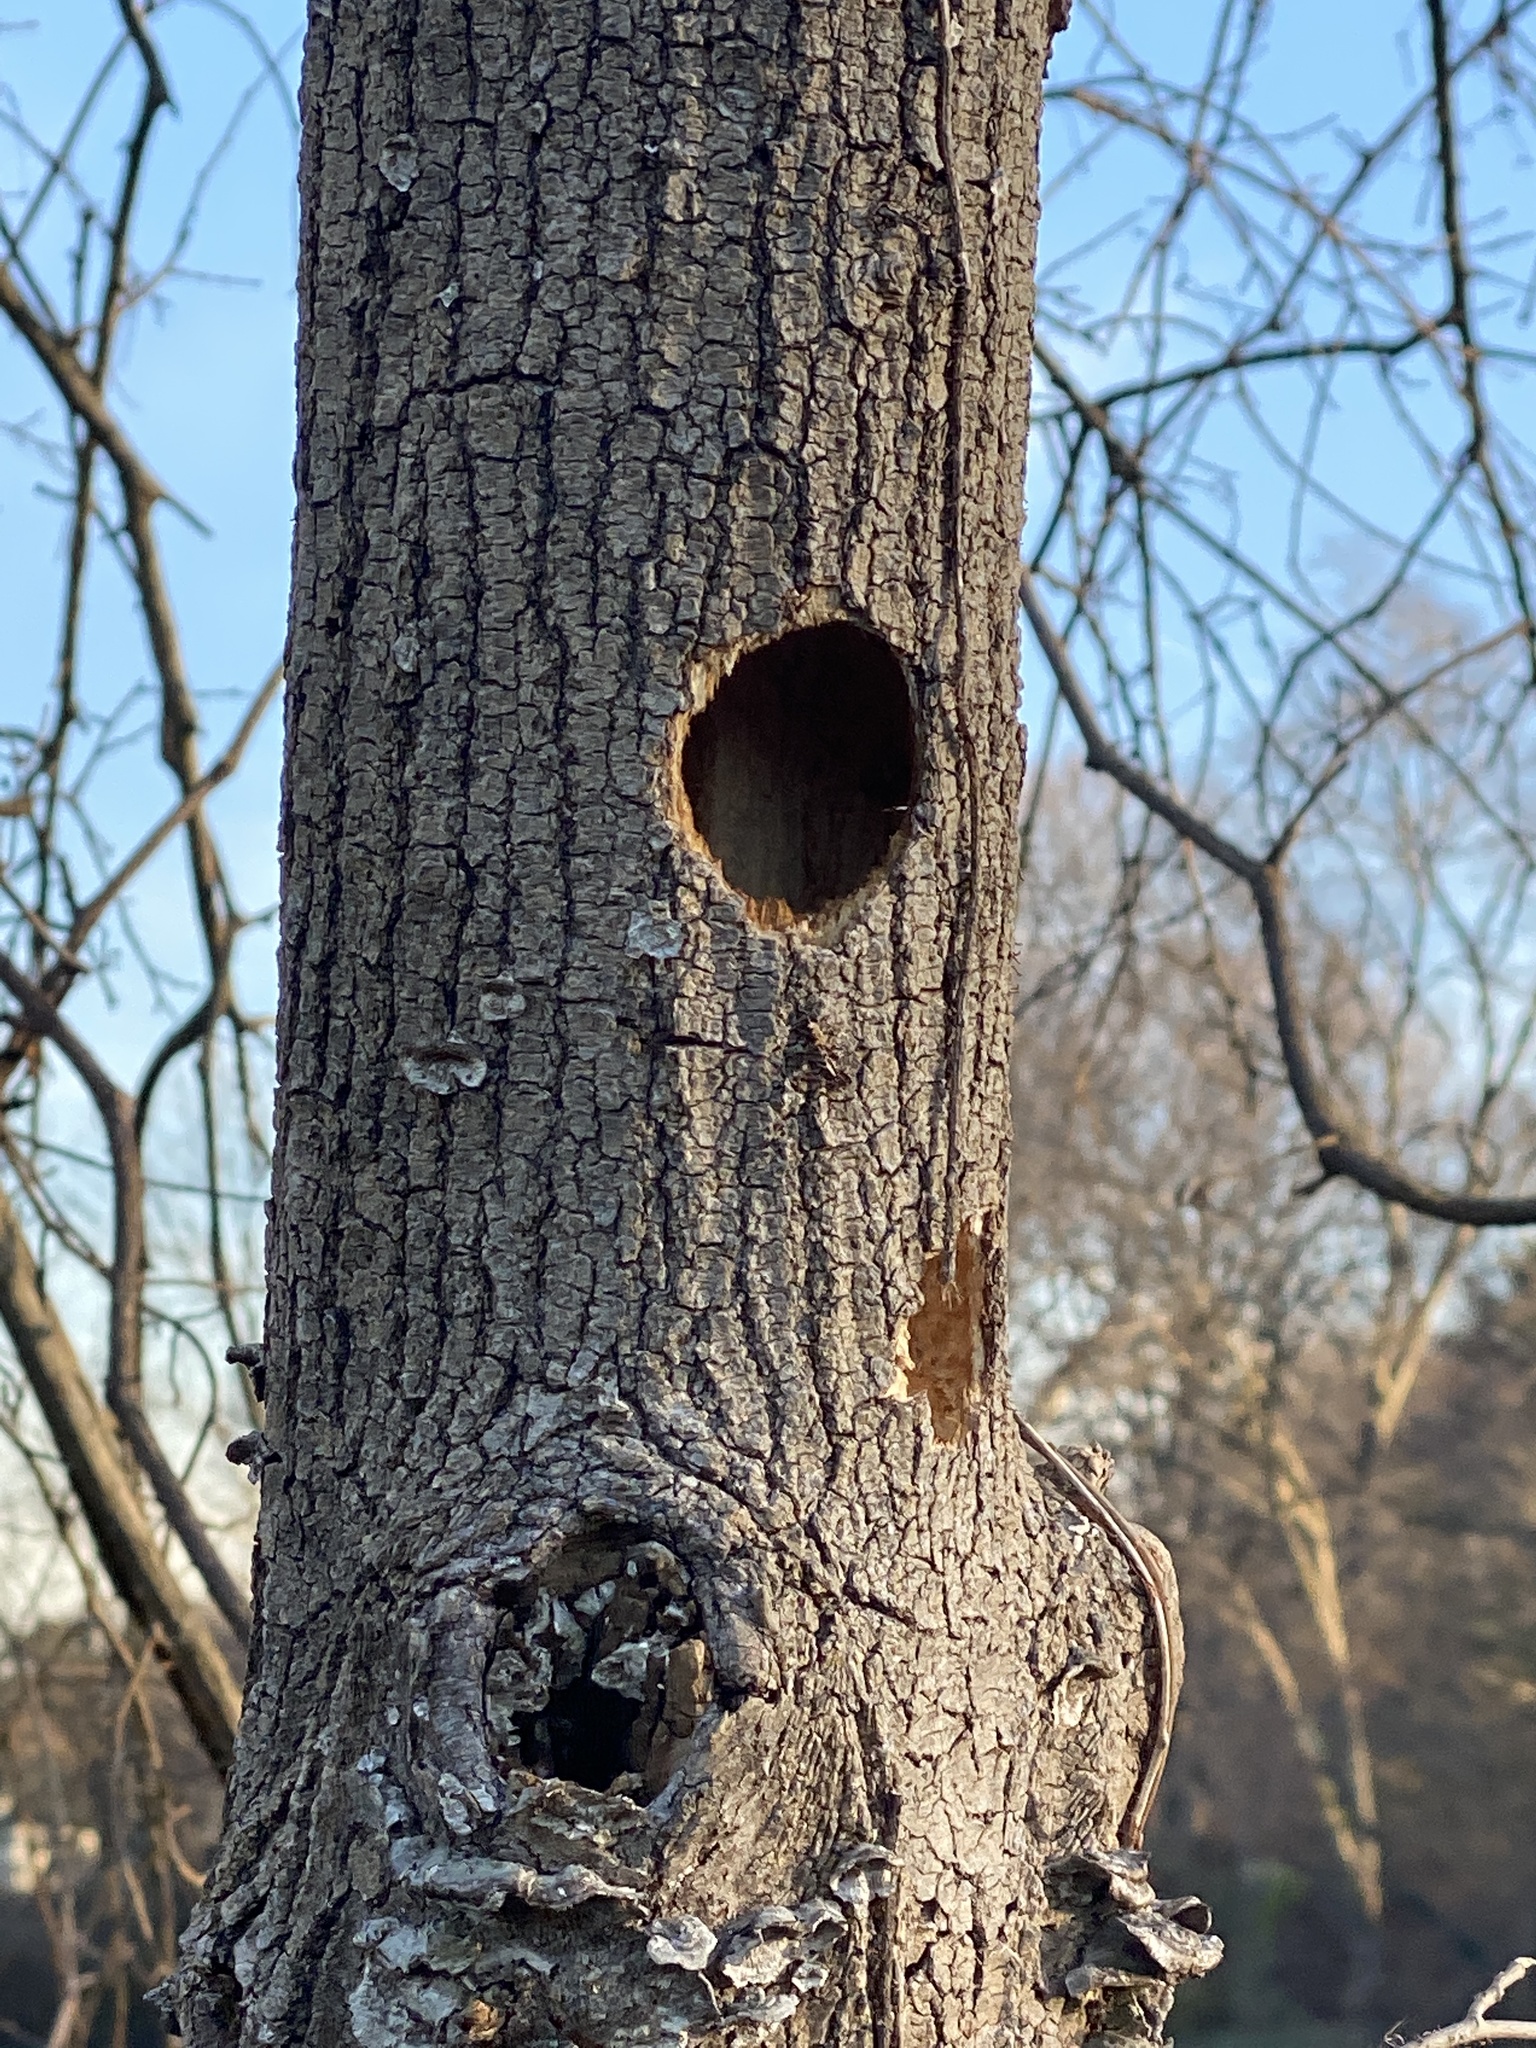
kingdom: Animalia
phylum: Chordata
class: Aves
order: Piciformes
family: Picidae
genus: Dryocopus
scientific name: Dryocopus pileatus
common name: Pileated woodpecker
